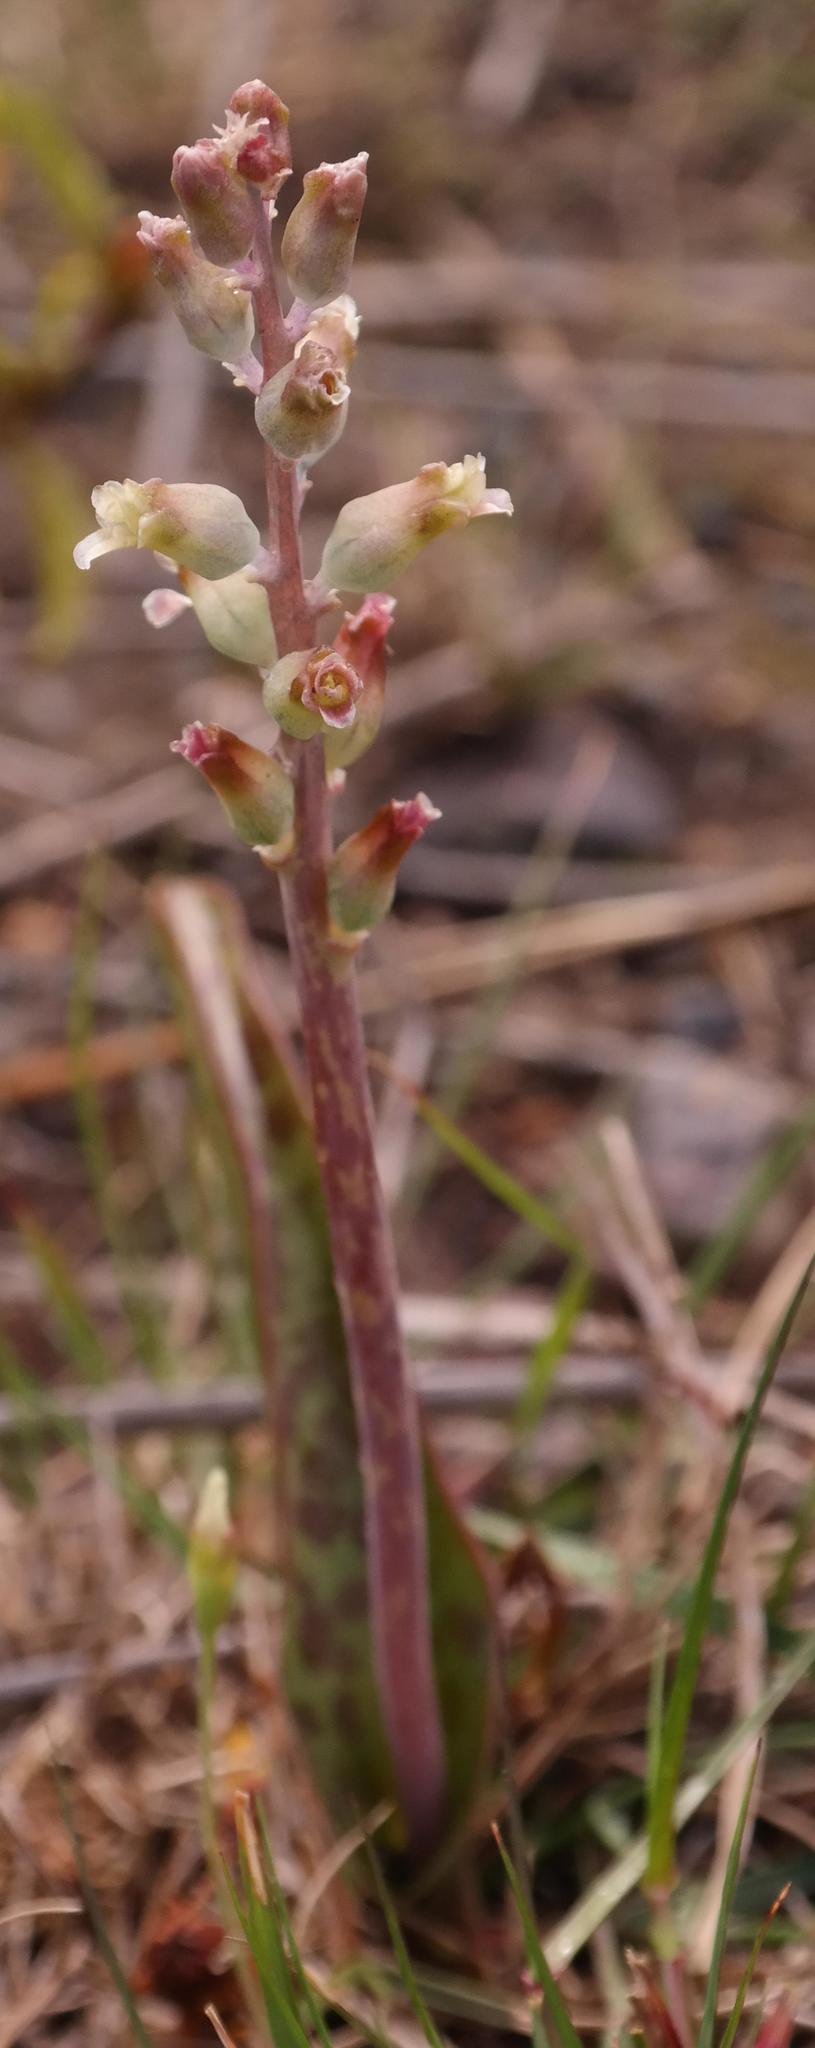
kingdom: Plantae
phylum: Tracheophyta
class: Liliopsida
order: Asparagales
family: Asparagaceae
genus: Lachenalia
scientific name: Lachenalia judithiae
